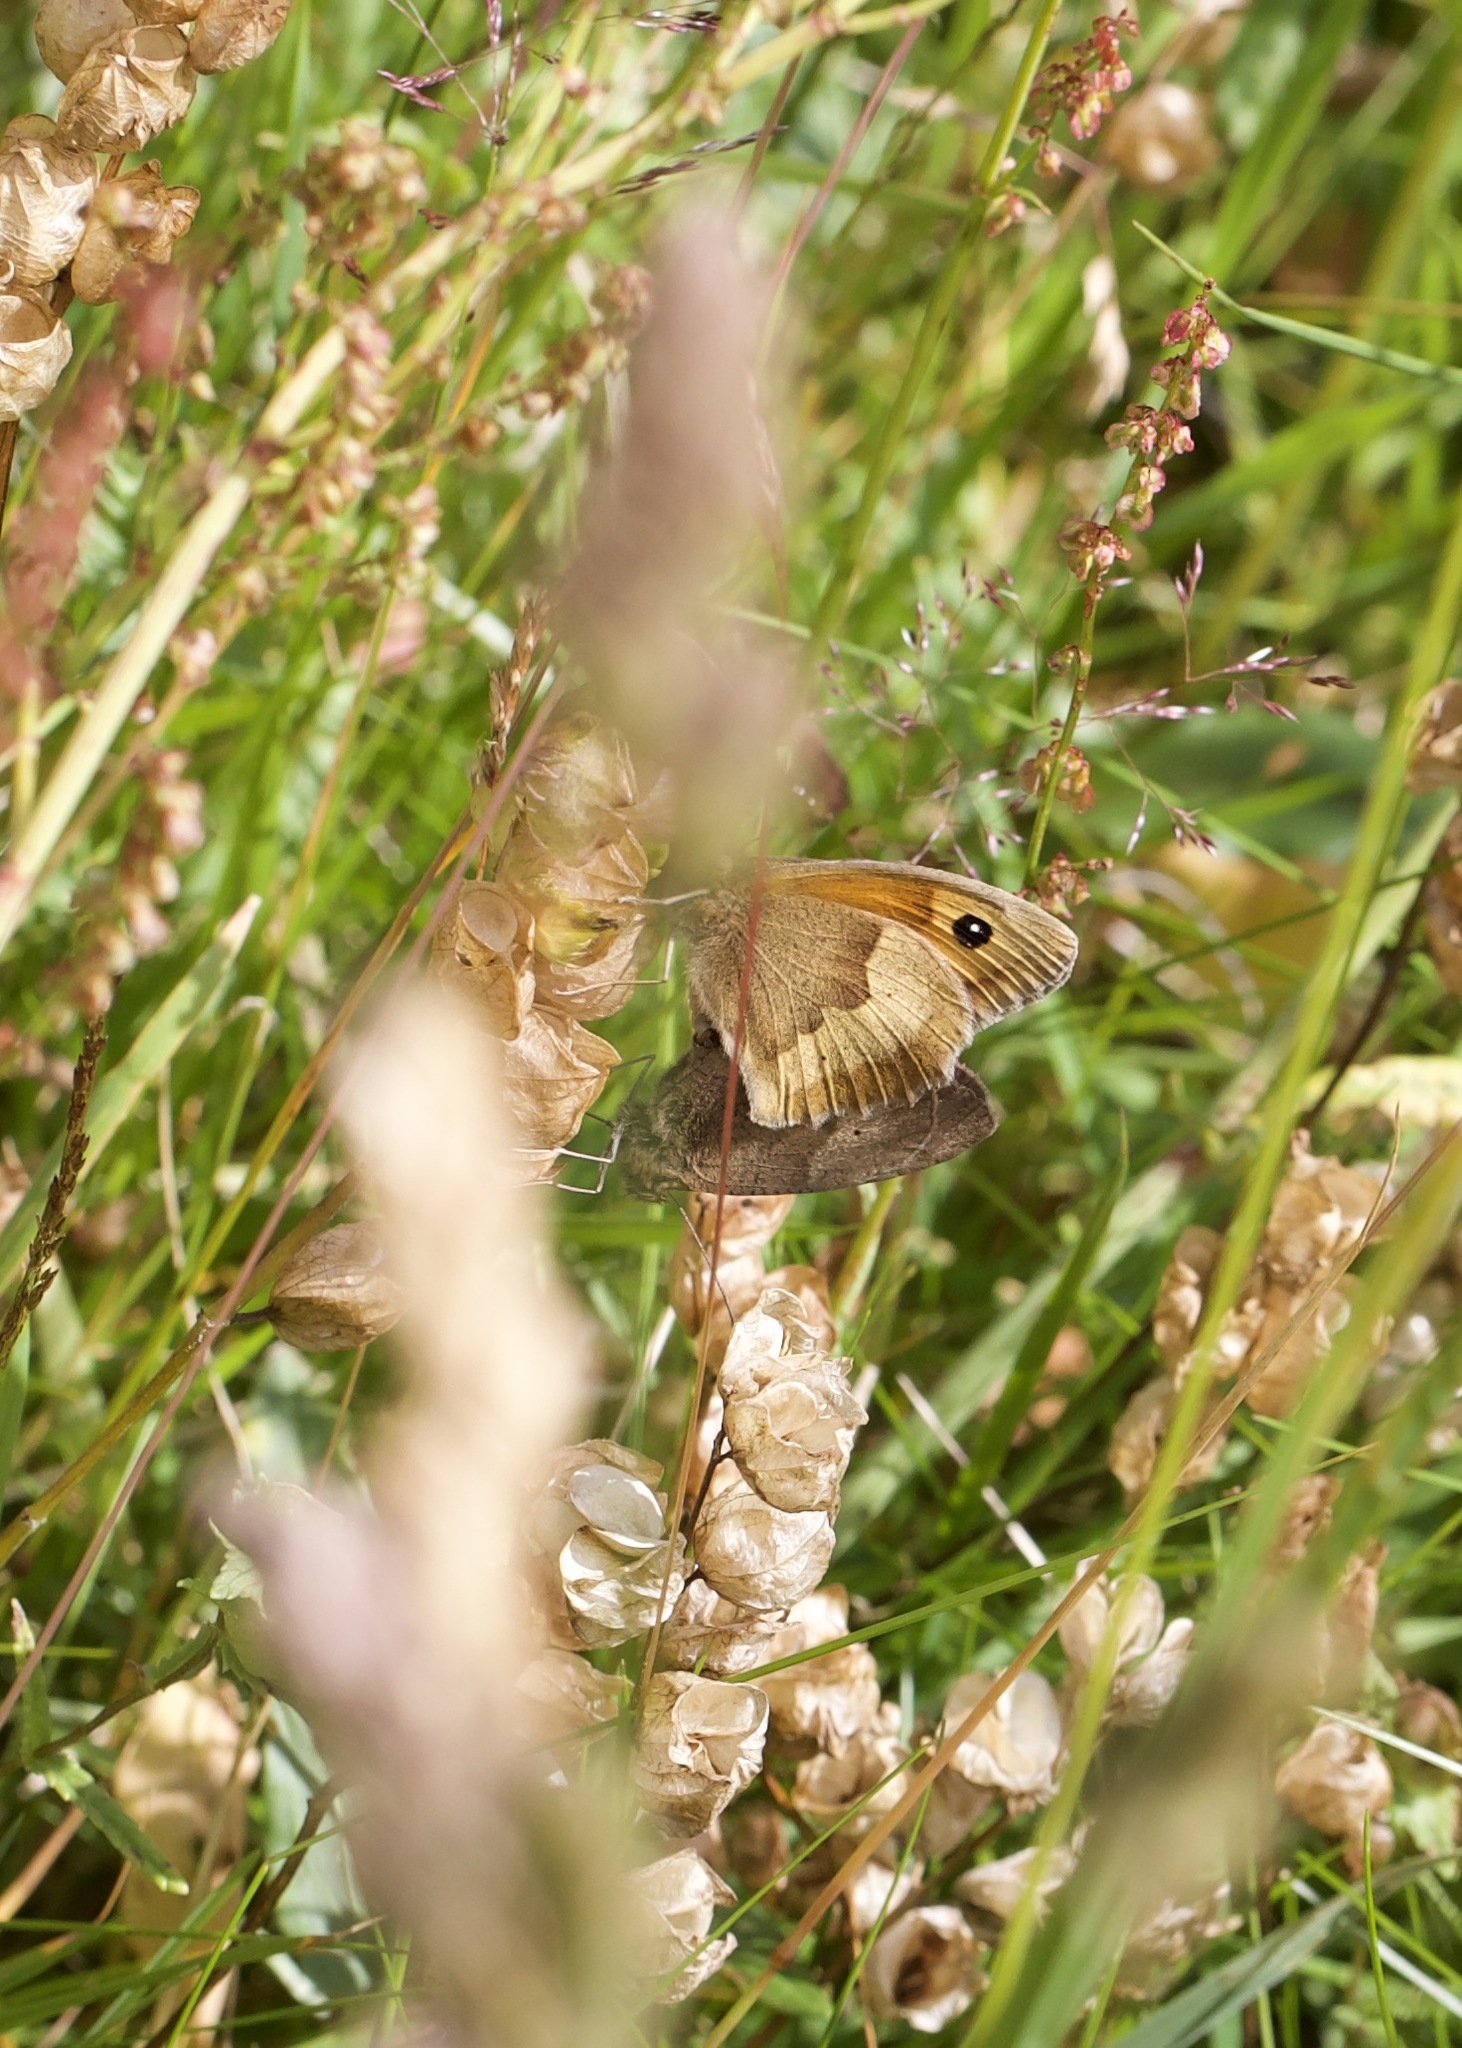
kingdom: Animalia
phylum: Arthropoda
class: Insecta
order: Lepidoptera
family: Nymphalidae
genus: Maniola
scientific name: Maniola jurtina
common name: Meadow brown
